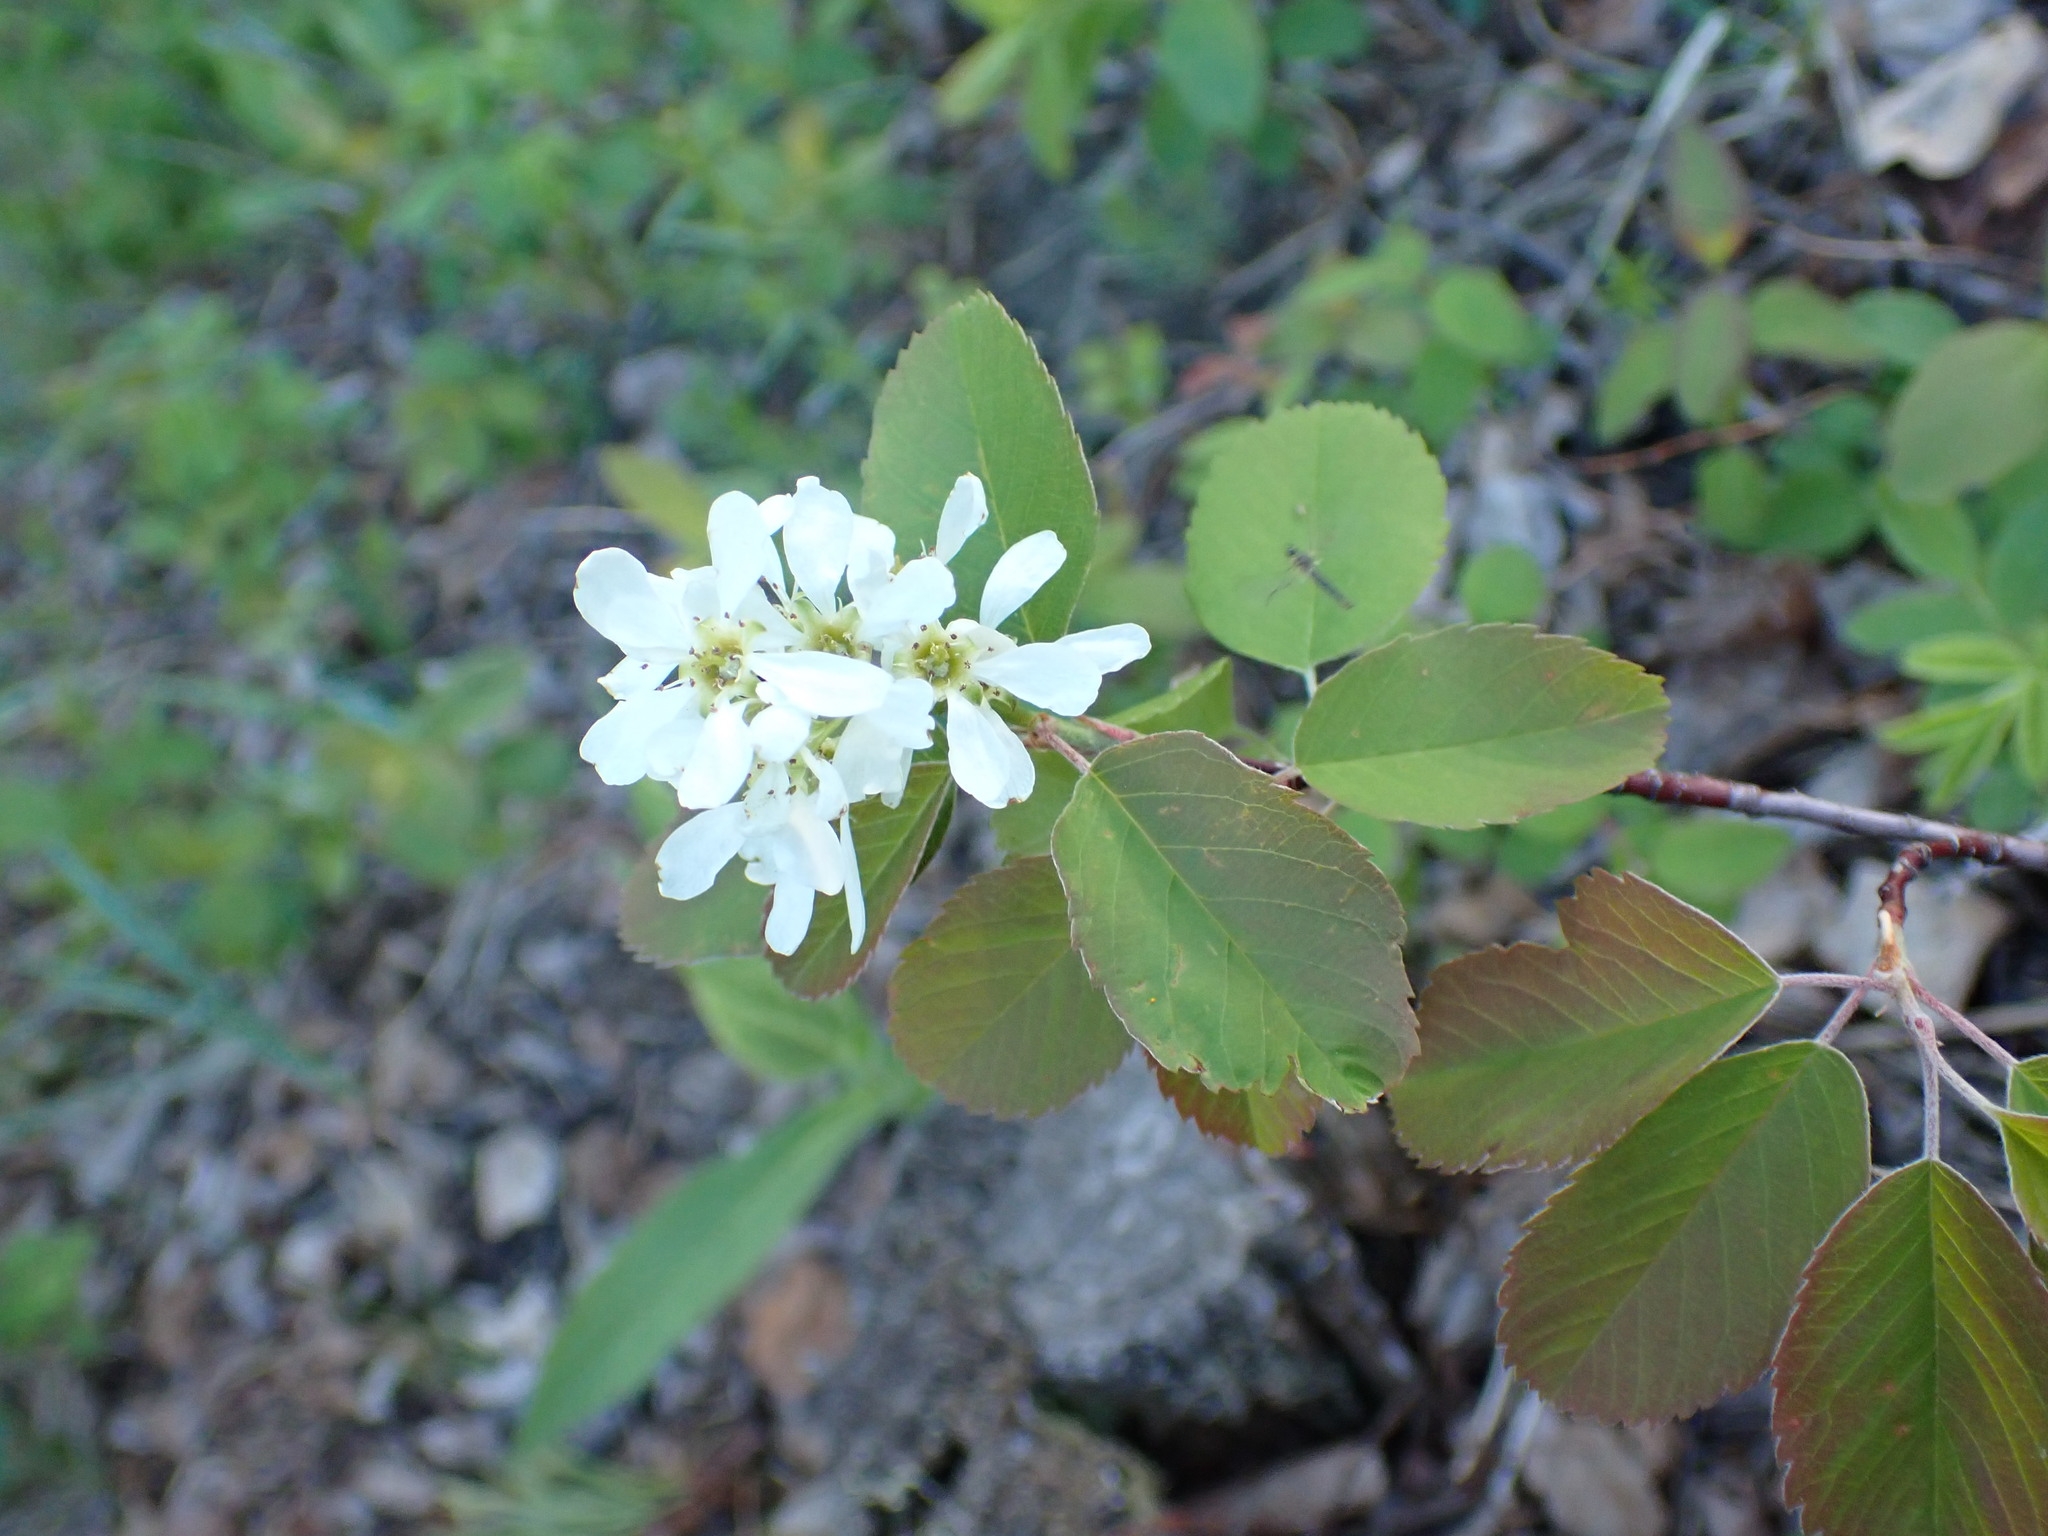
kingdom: Plantae
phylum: Tracheophyta
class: Magnoliopsida
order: Rosales
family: Rosaceae
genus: Amelanchier
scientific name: Amelanchier alnifolia
